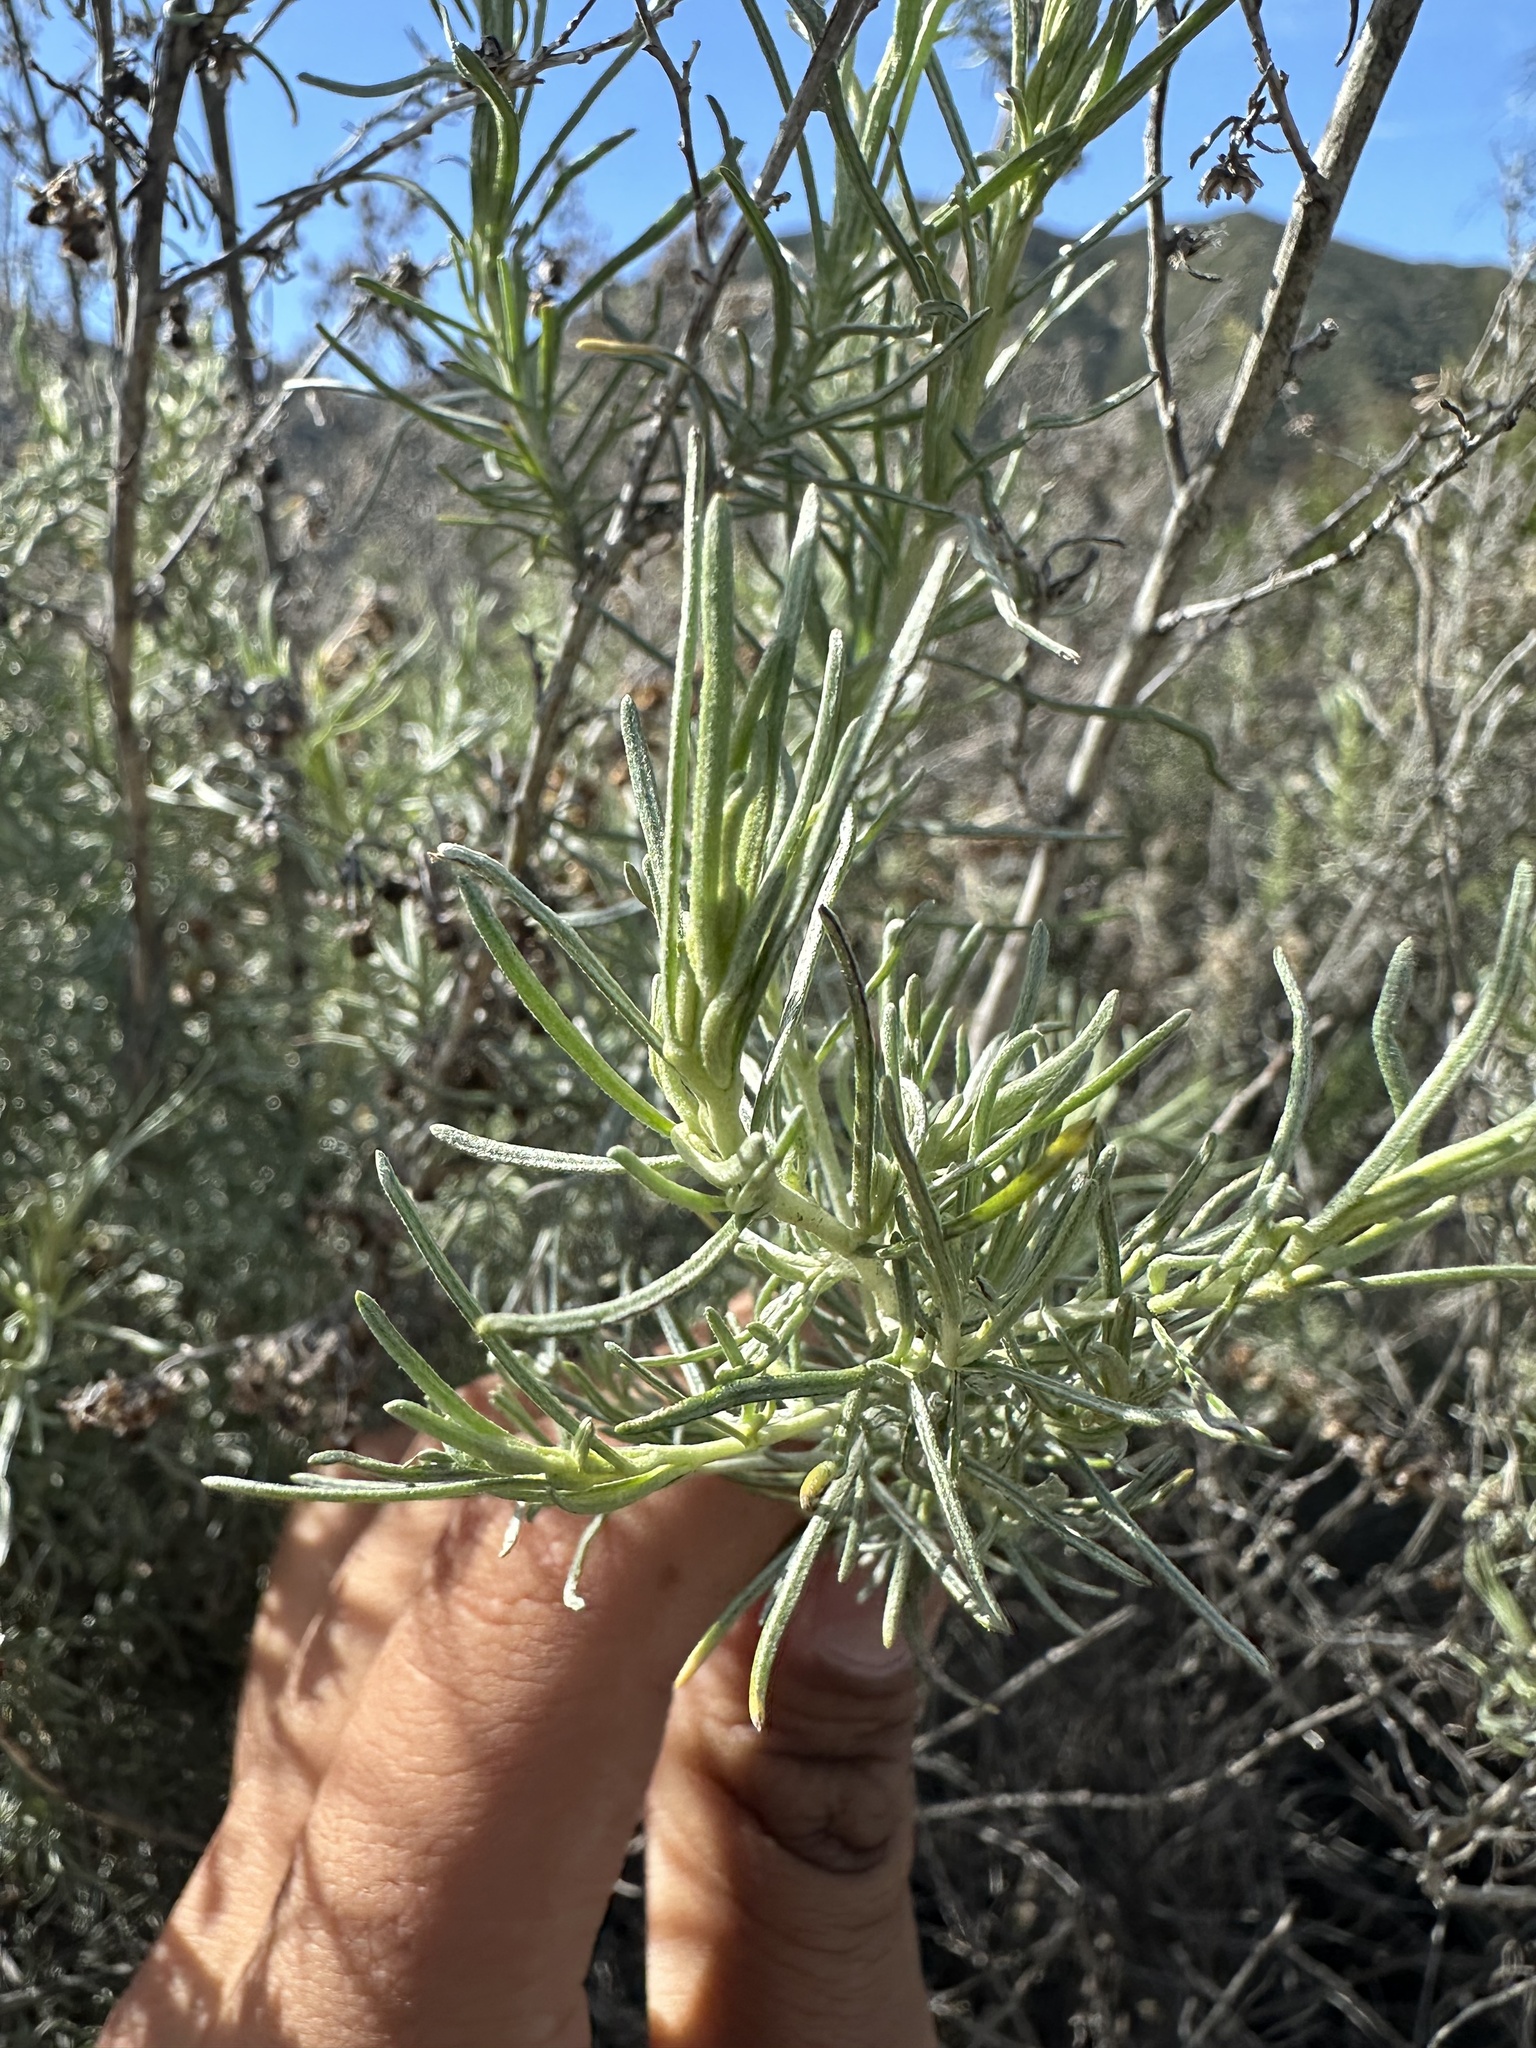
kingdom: Plantae
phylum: Tracheophyta
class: Magnoliopsida
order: Asterales
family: Asteraceae
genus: Artemisia
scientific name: Artemisia californica
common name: California sagebrush
